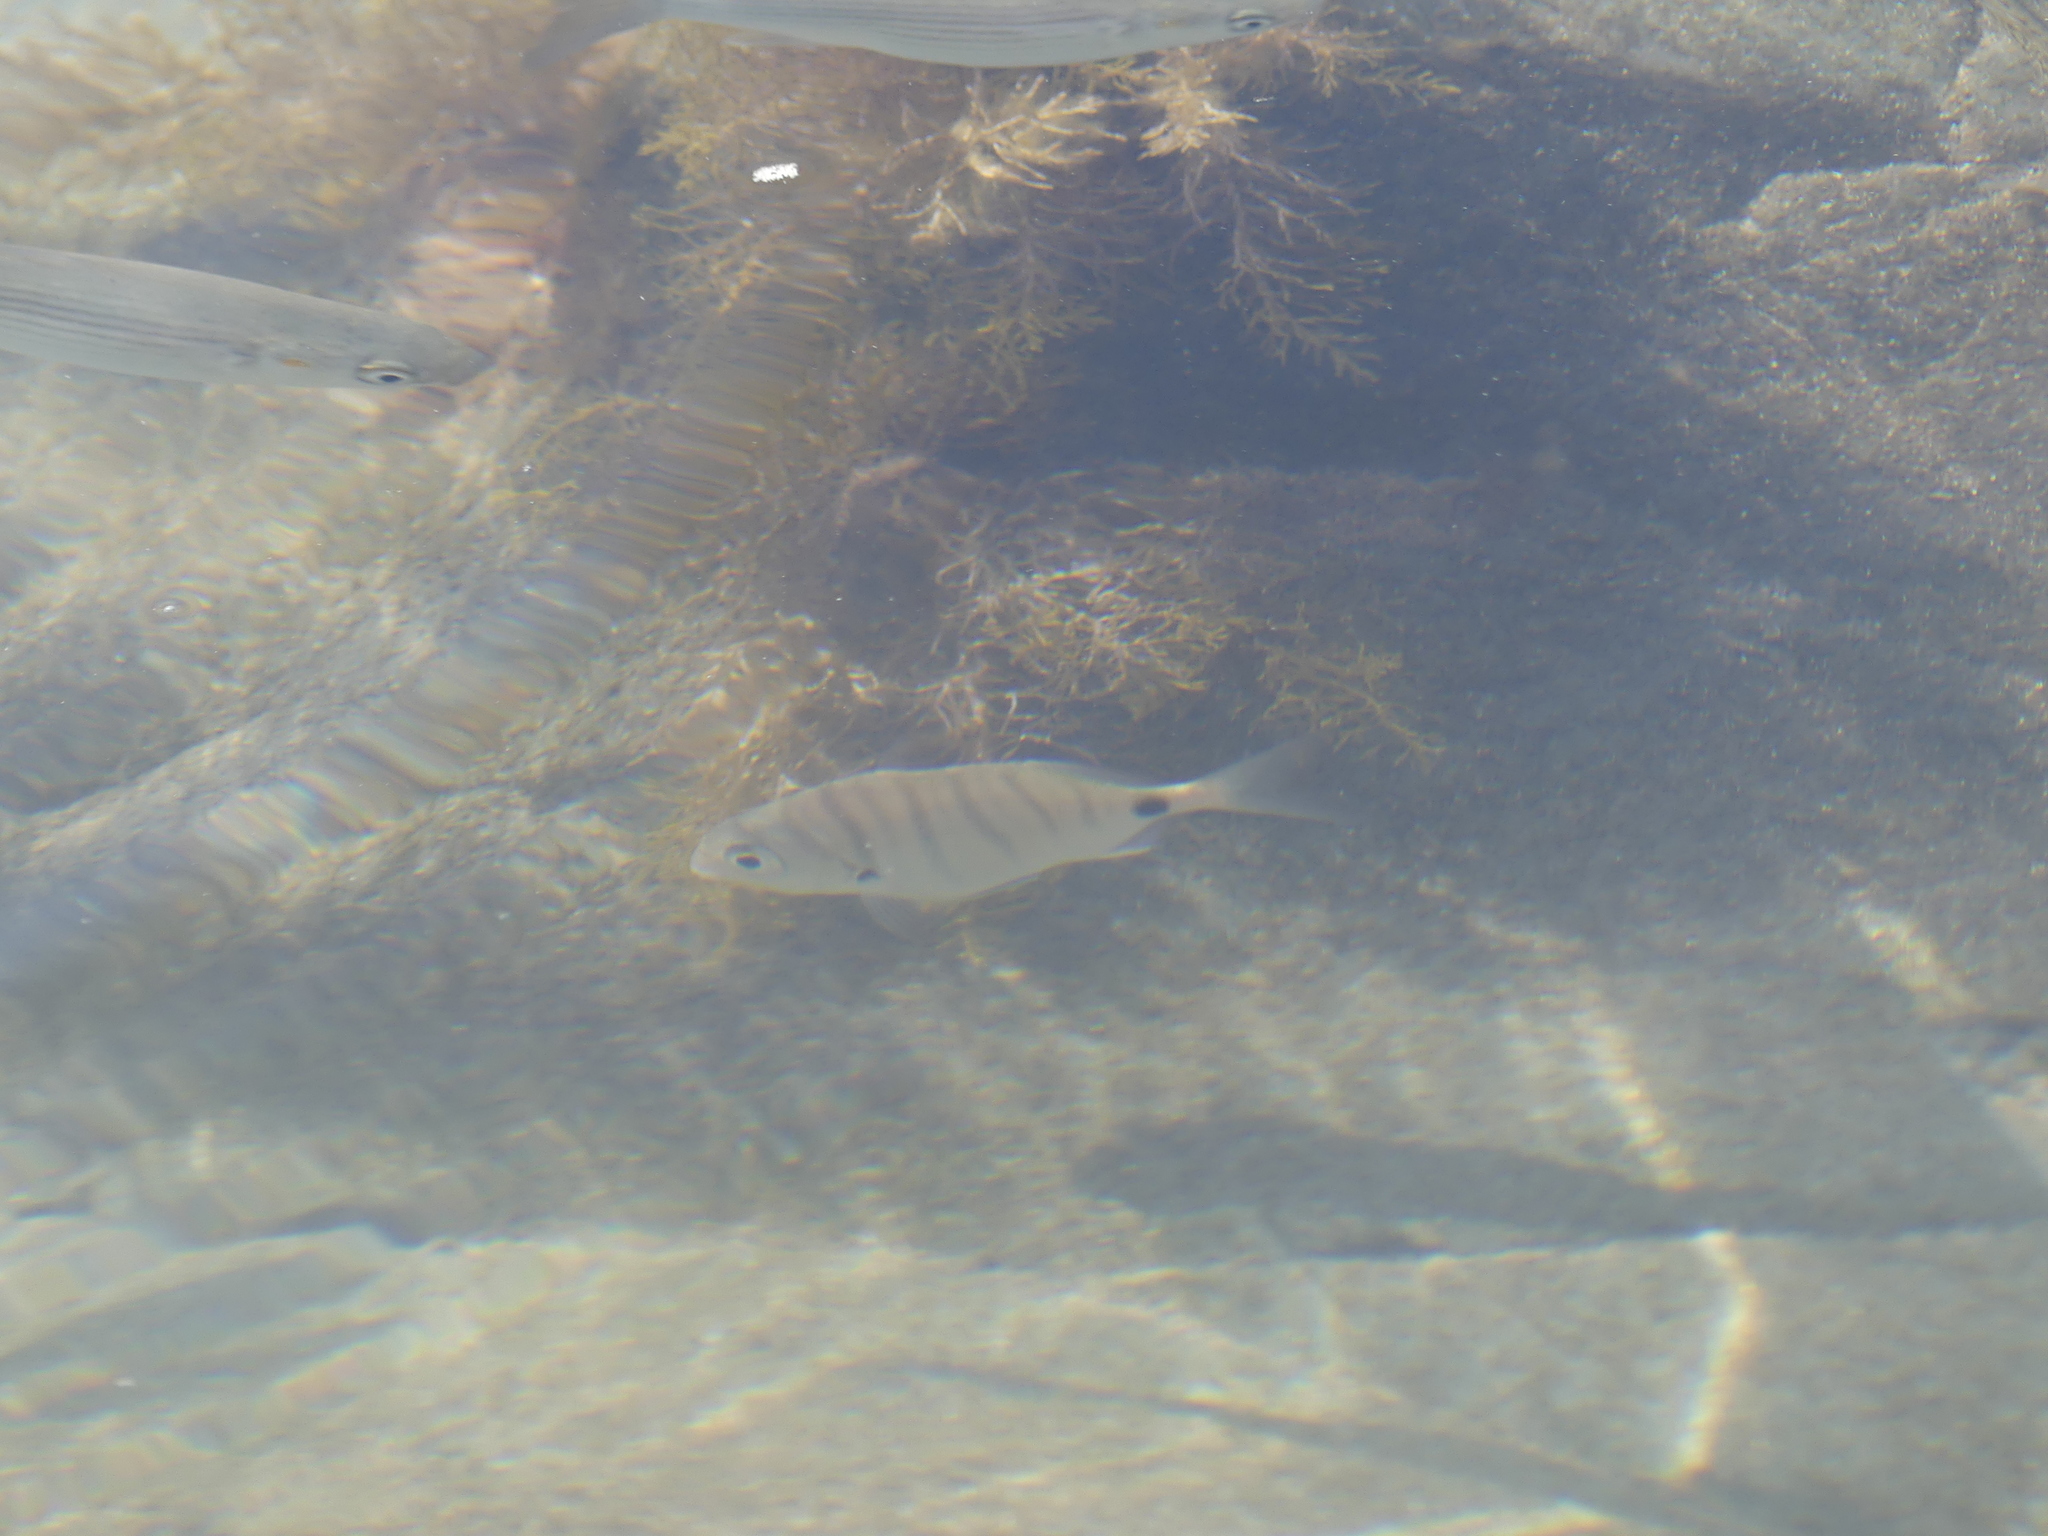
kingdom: Animalia
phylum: Chordata
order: Perciformes
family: Sparidae
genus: Diplodus
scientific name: Diplodus cadenati
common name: Moroccan white seabream
